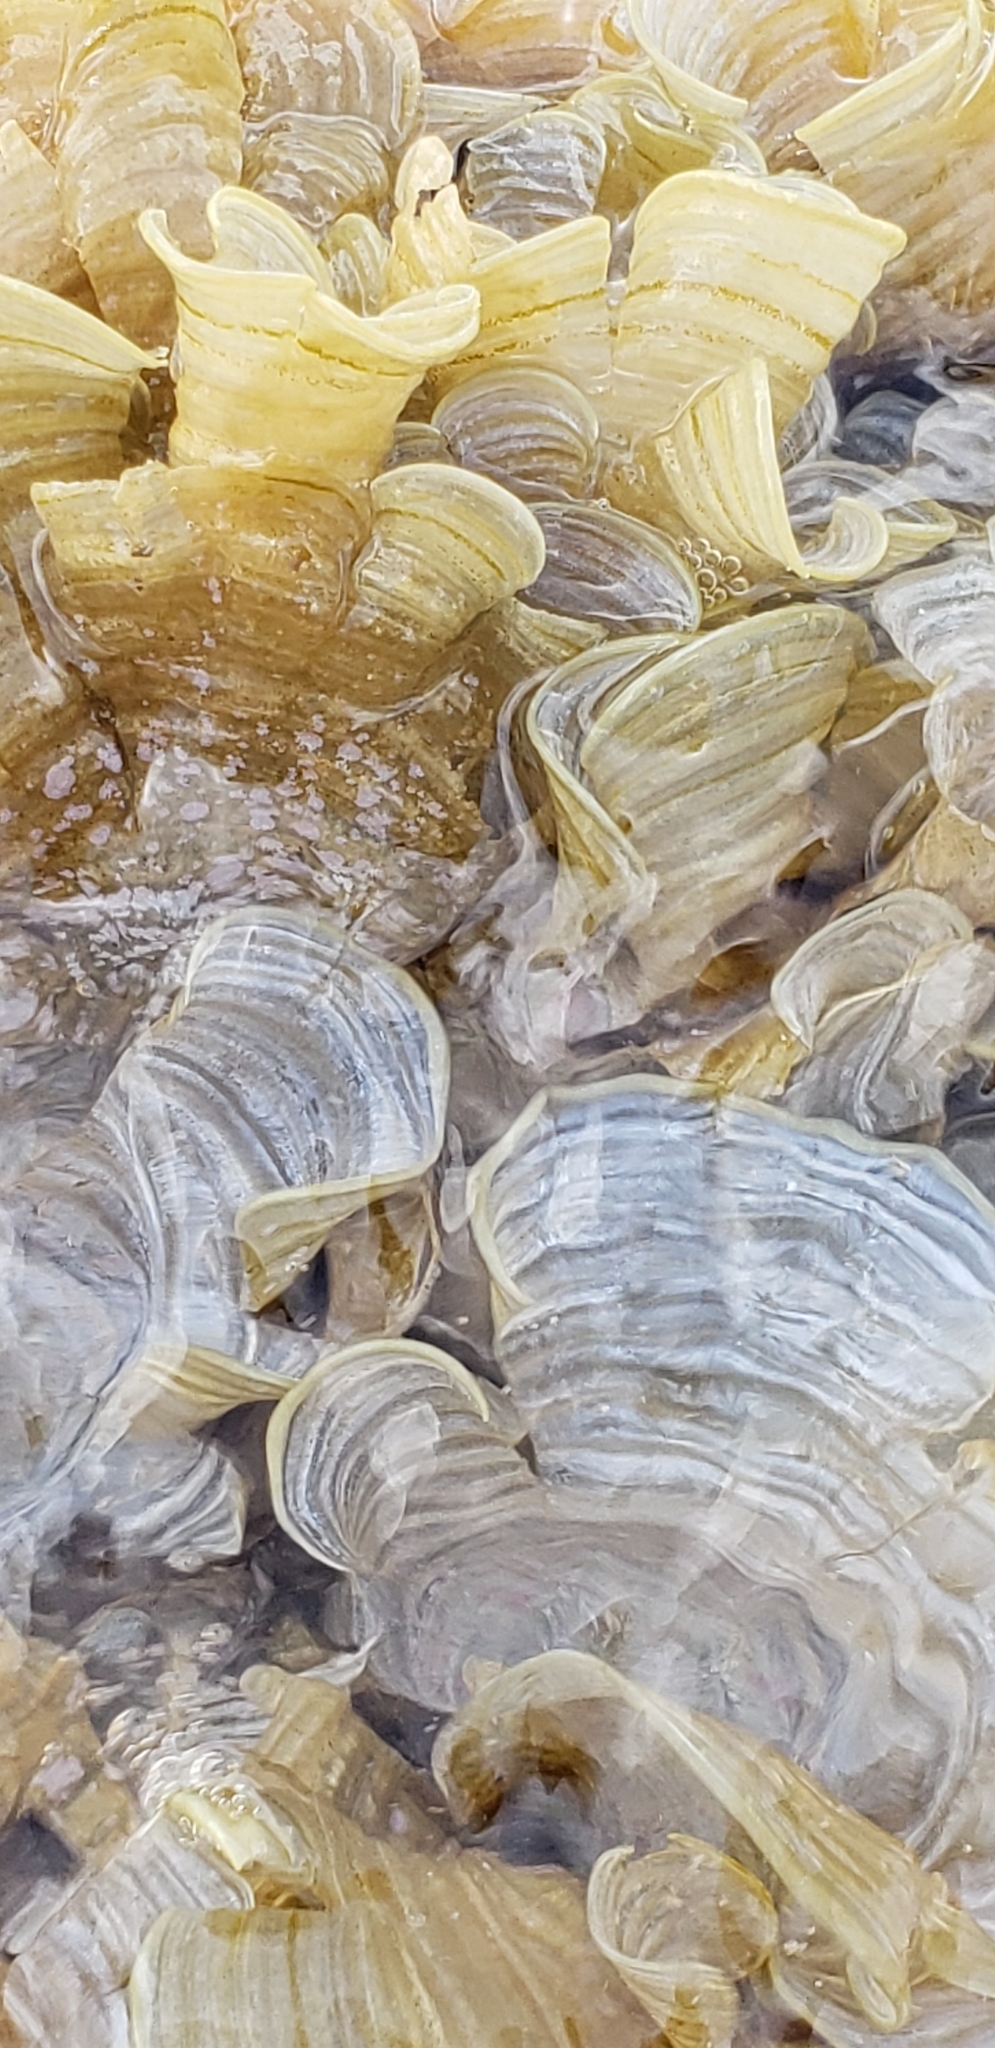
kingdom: Chromista
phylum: Ochrophyta
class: Phaeophyceae
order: Dictyotales
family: Dictyotaceae
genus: Padina
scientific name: Padina sanctae-crucis
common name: White scroll algae
